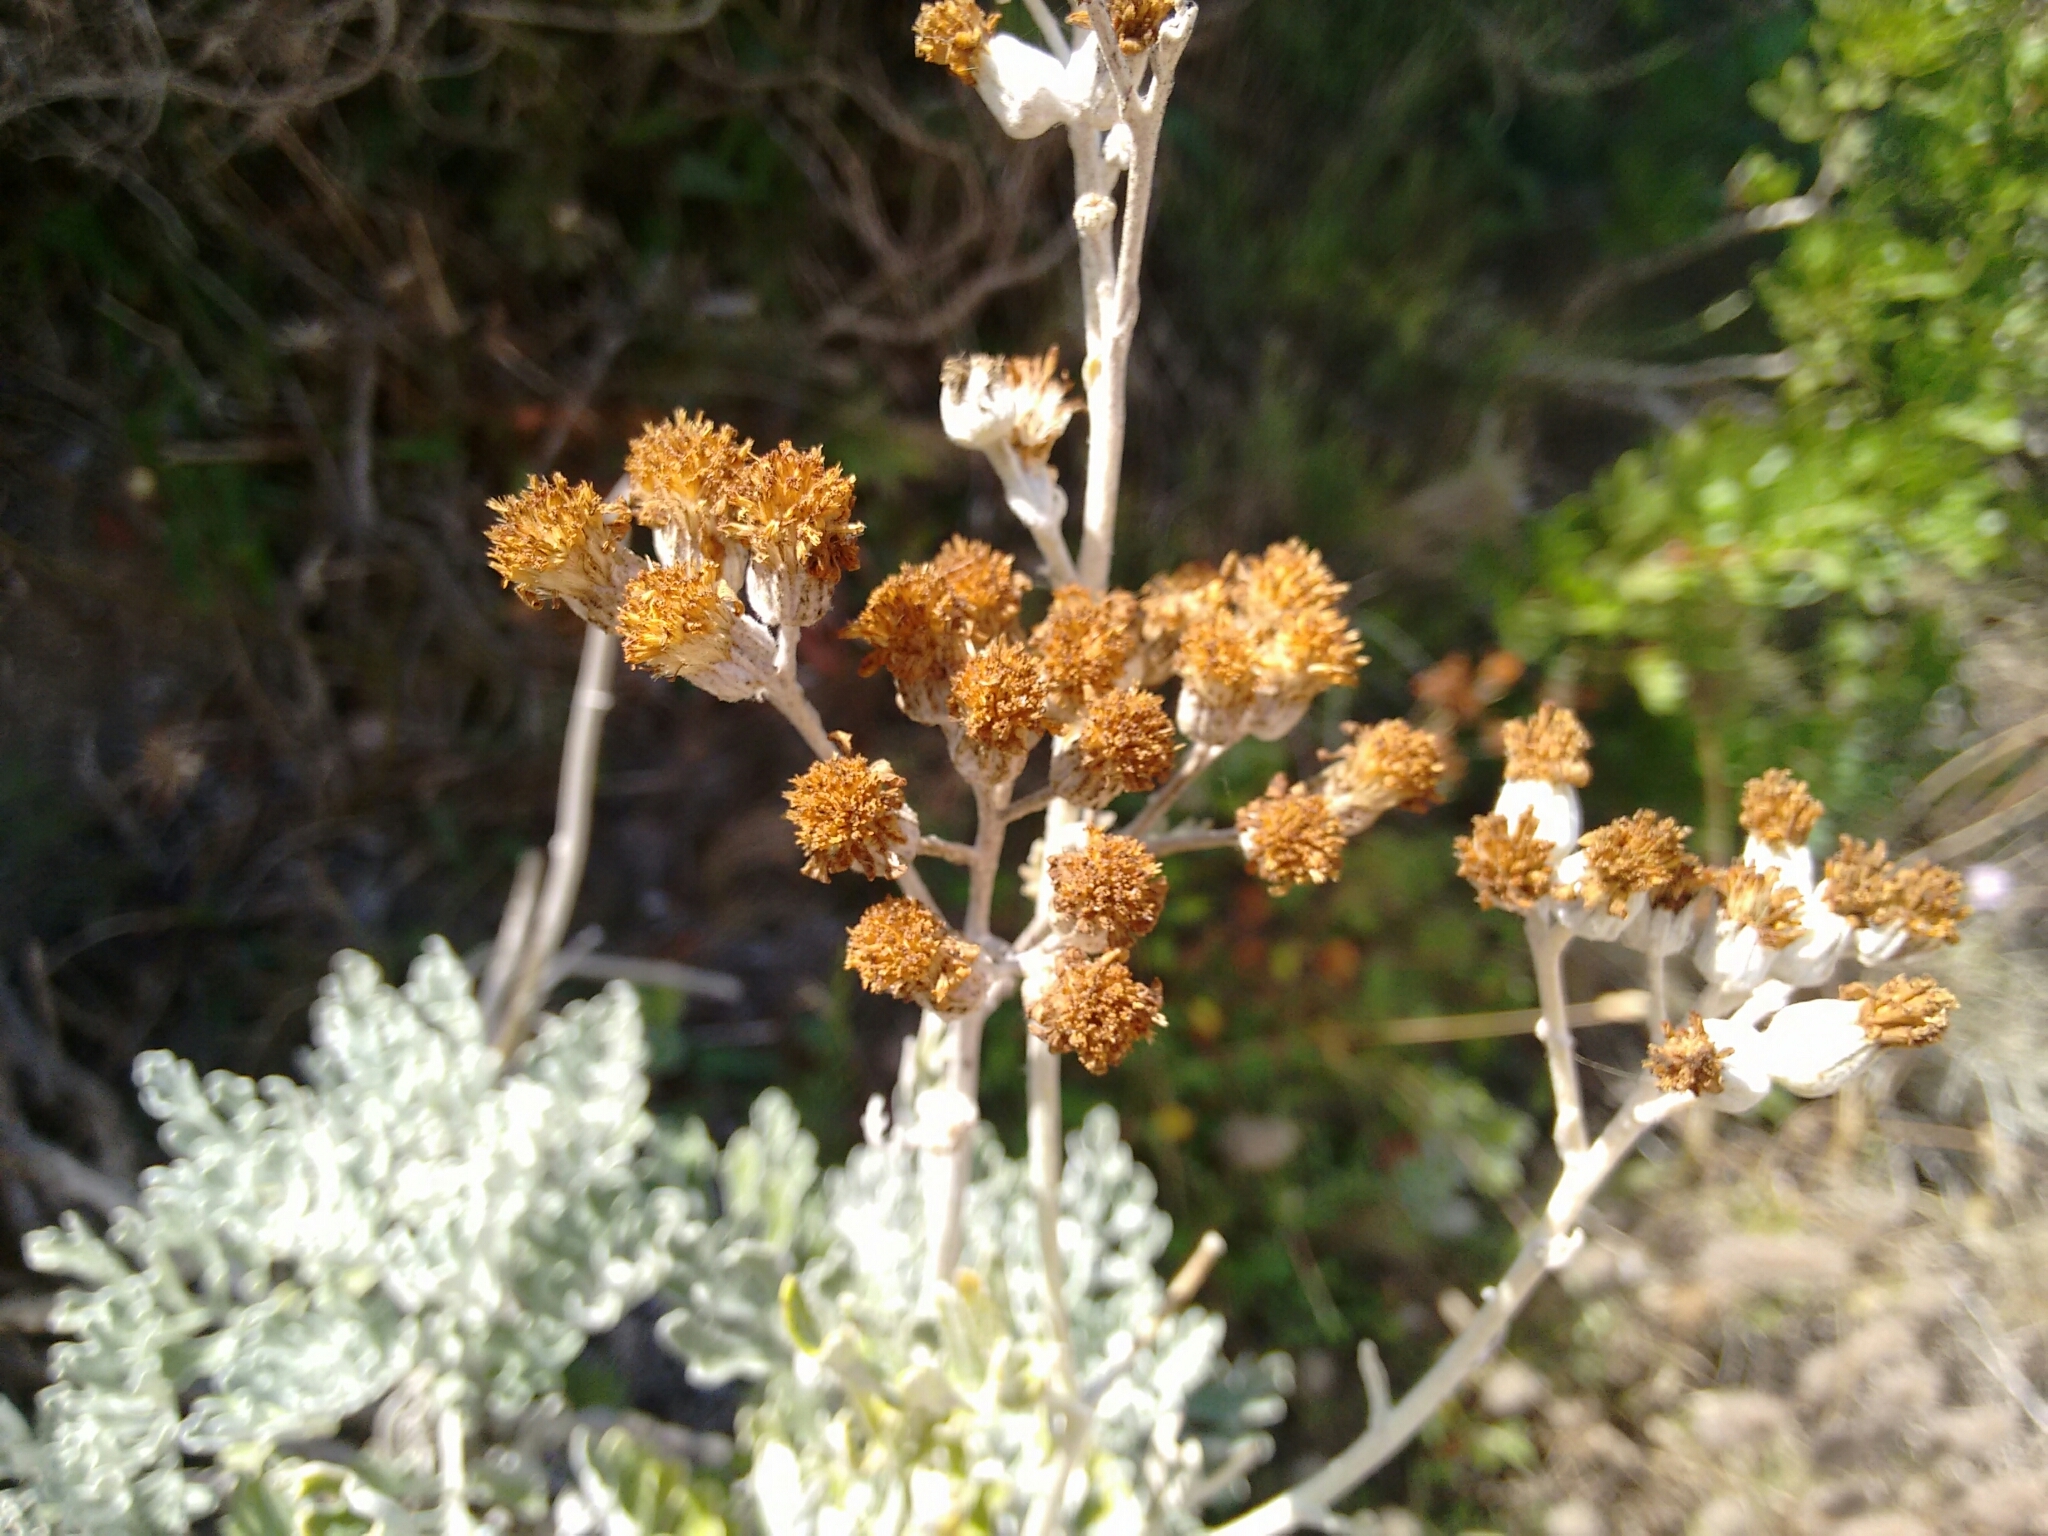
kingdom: Plantae
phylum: Tracheophyta
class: Magnoliopsida
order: Asterales
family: Asteraceae
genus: Jacobaea
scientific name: Jacobaea maritima
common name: Silver ragwort
